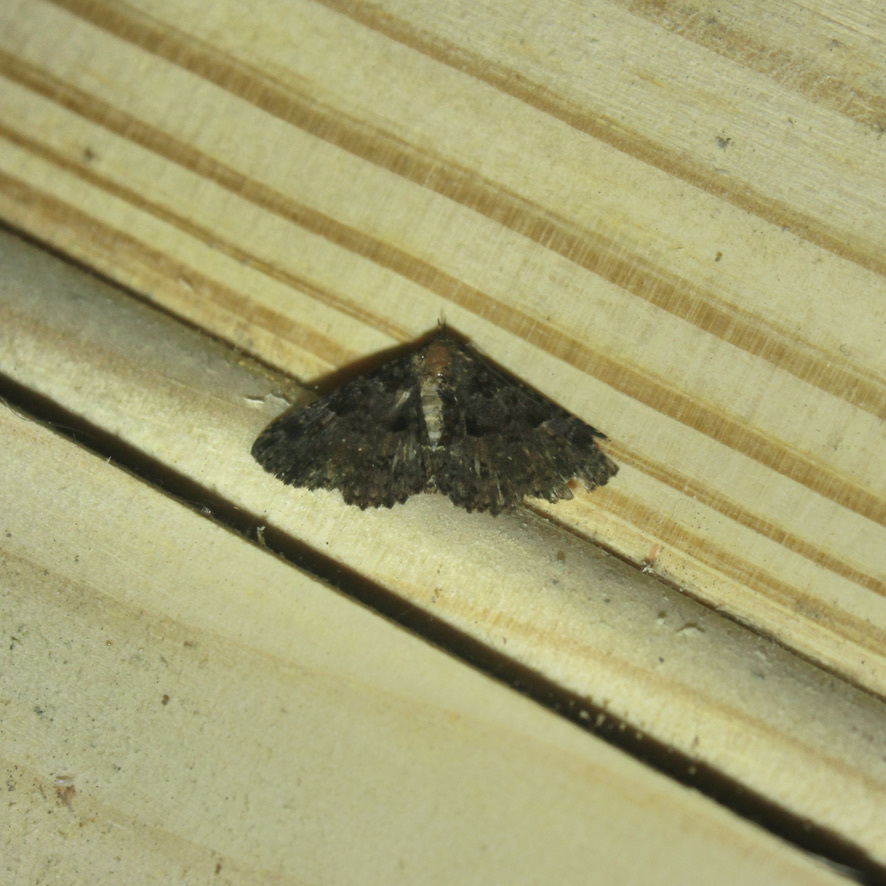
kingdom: Animalia
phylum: Arthropoda
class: Insecta
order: Lepidoptera
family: Erebidae
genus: Metalectra
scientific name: Metalectra praecisalis
